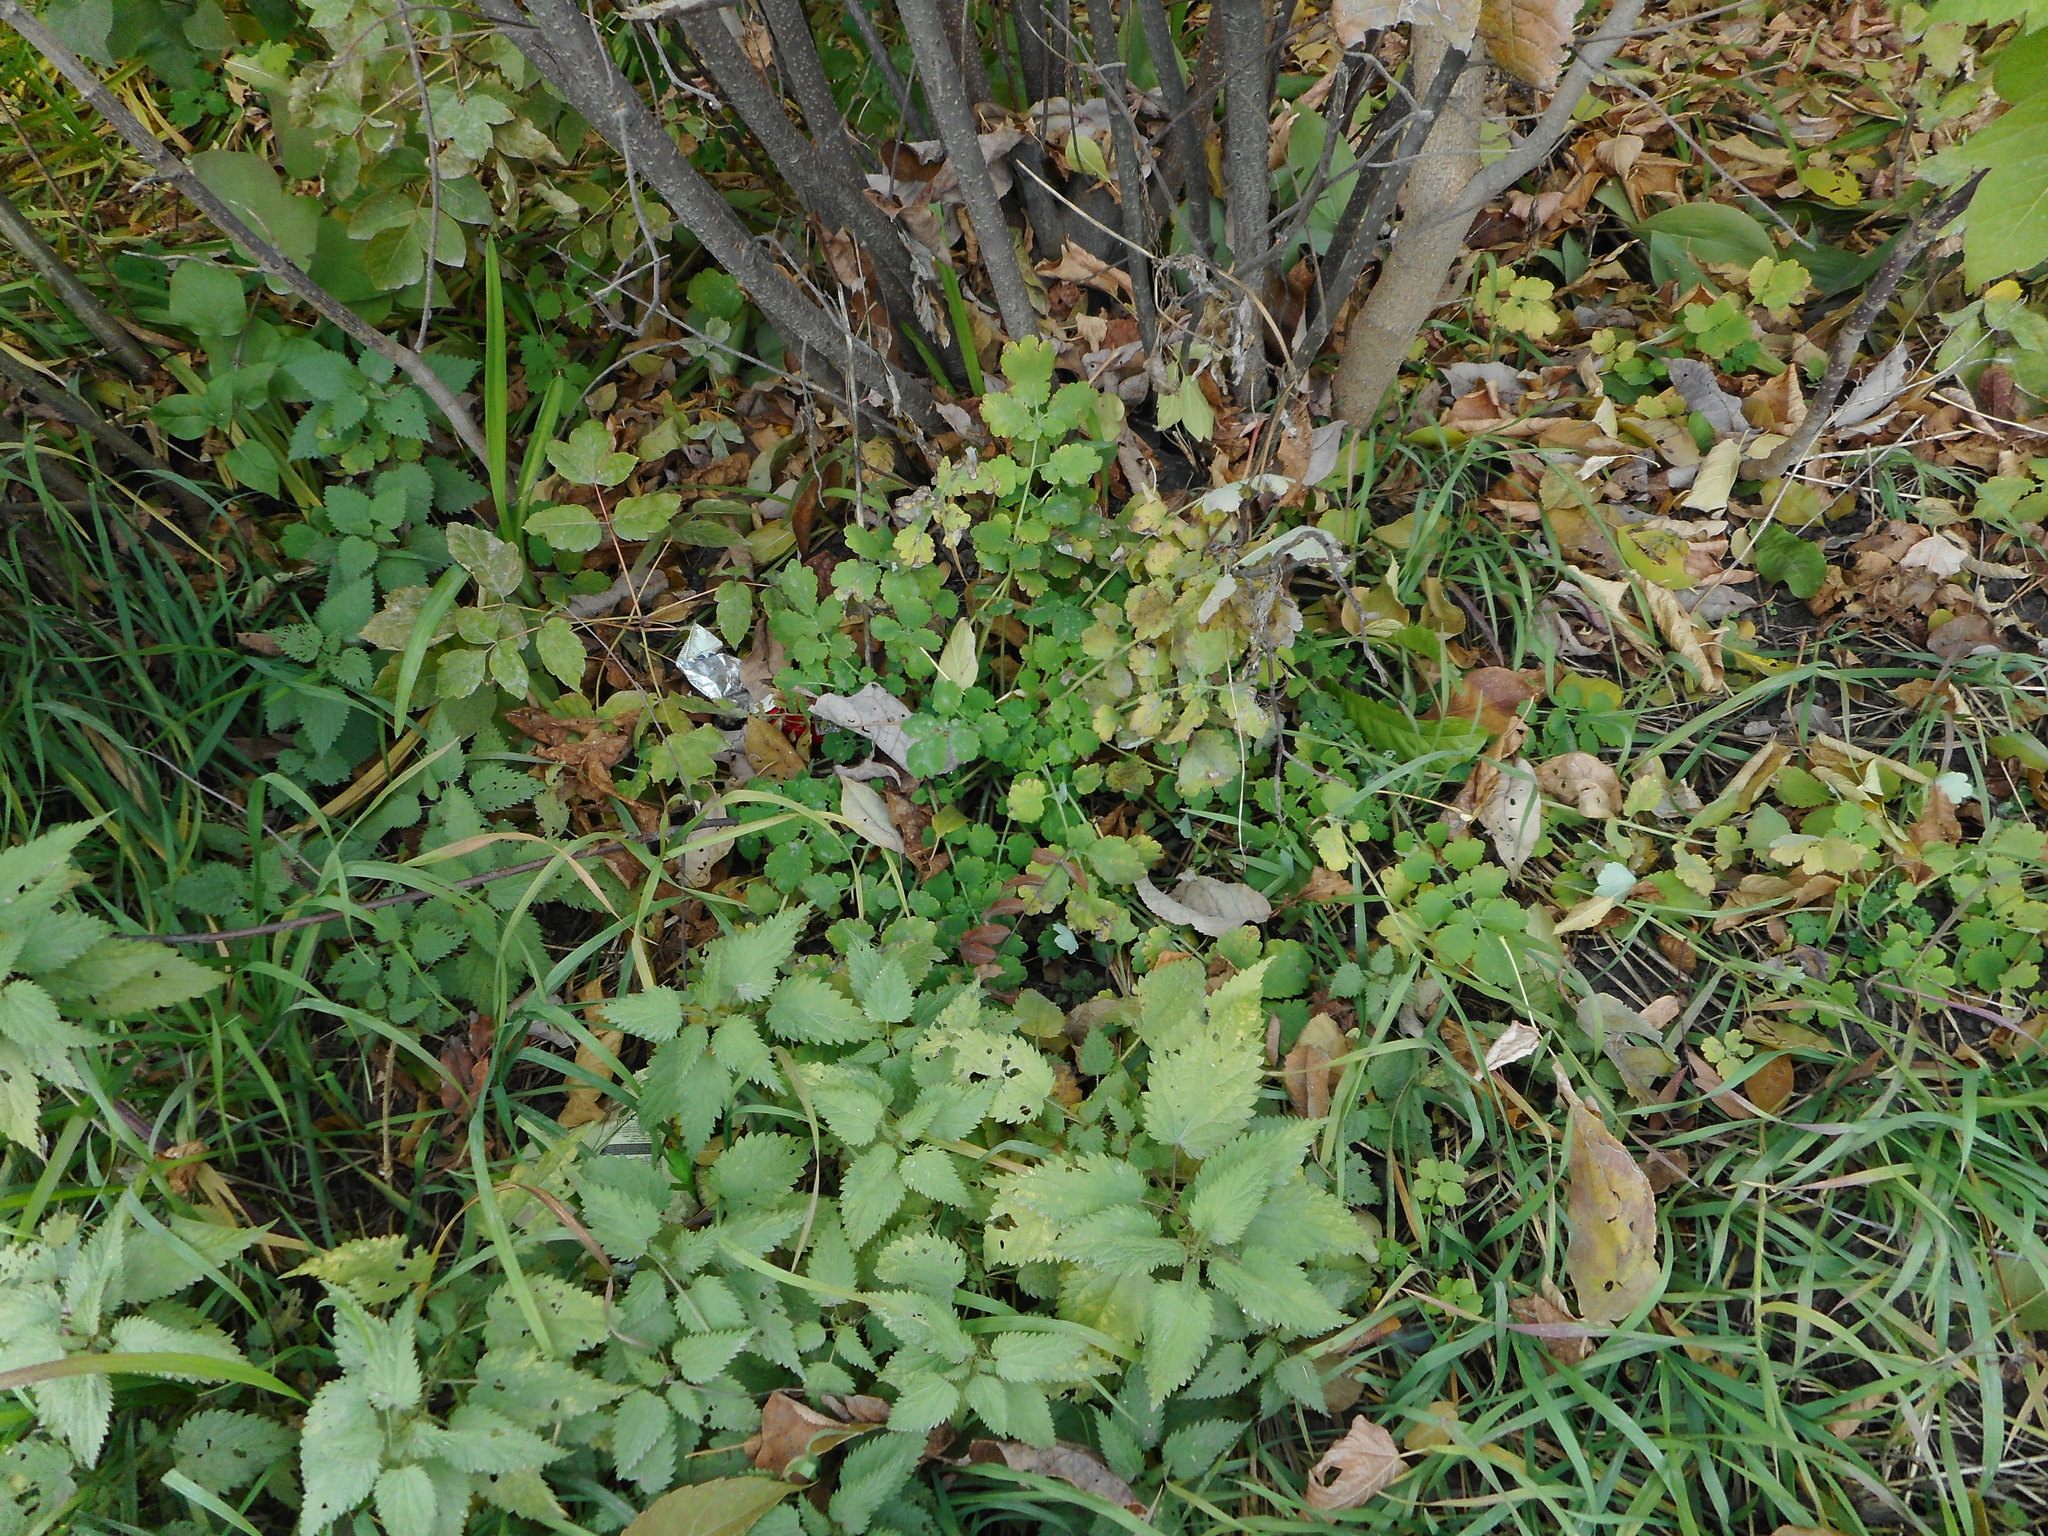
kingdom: Plantae
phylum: Tracheophyta
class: Magnoliopsida
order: Ranunculales
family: Papaveraceae
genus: Chelidonium
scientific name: Chelidonium majus
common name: Greater celandine
